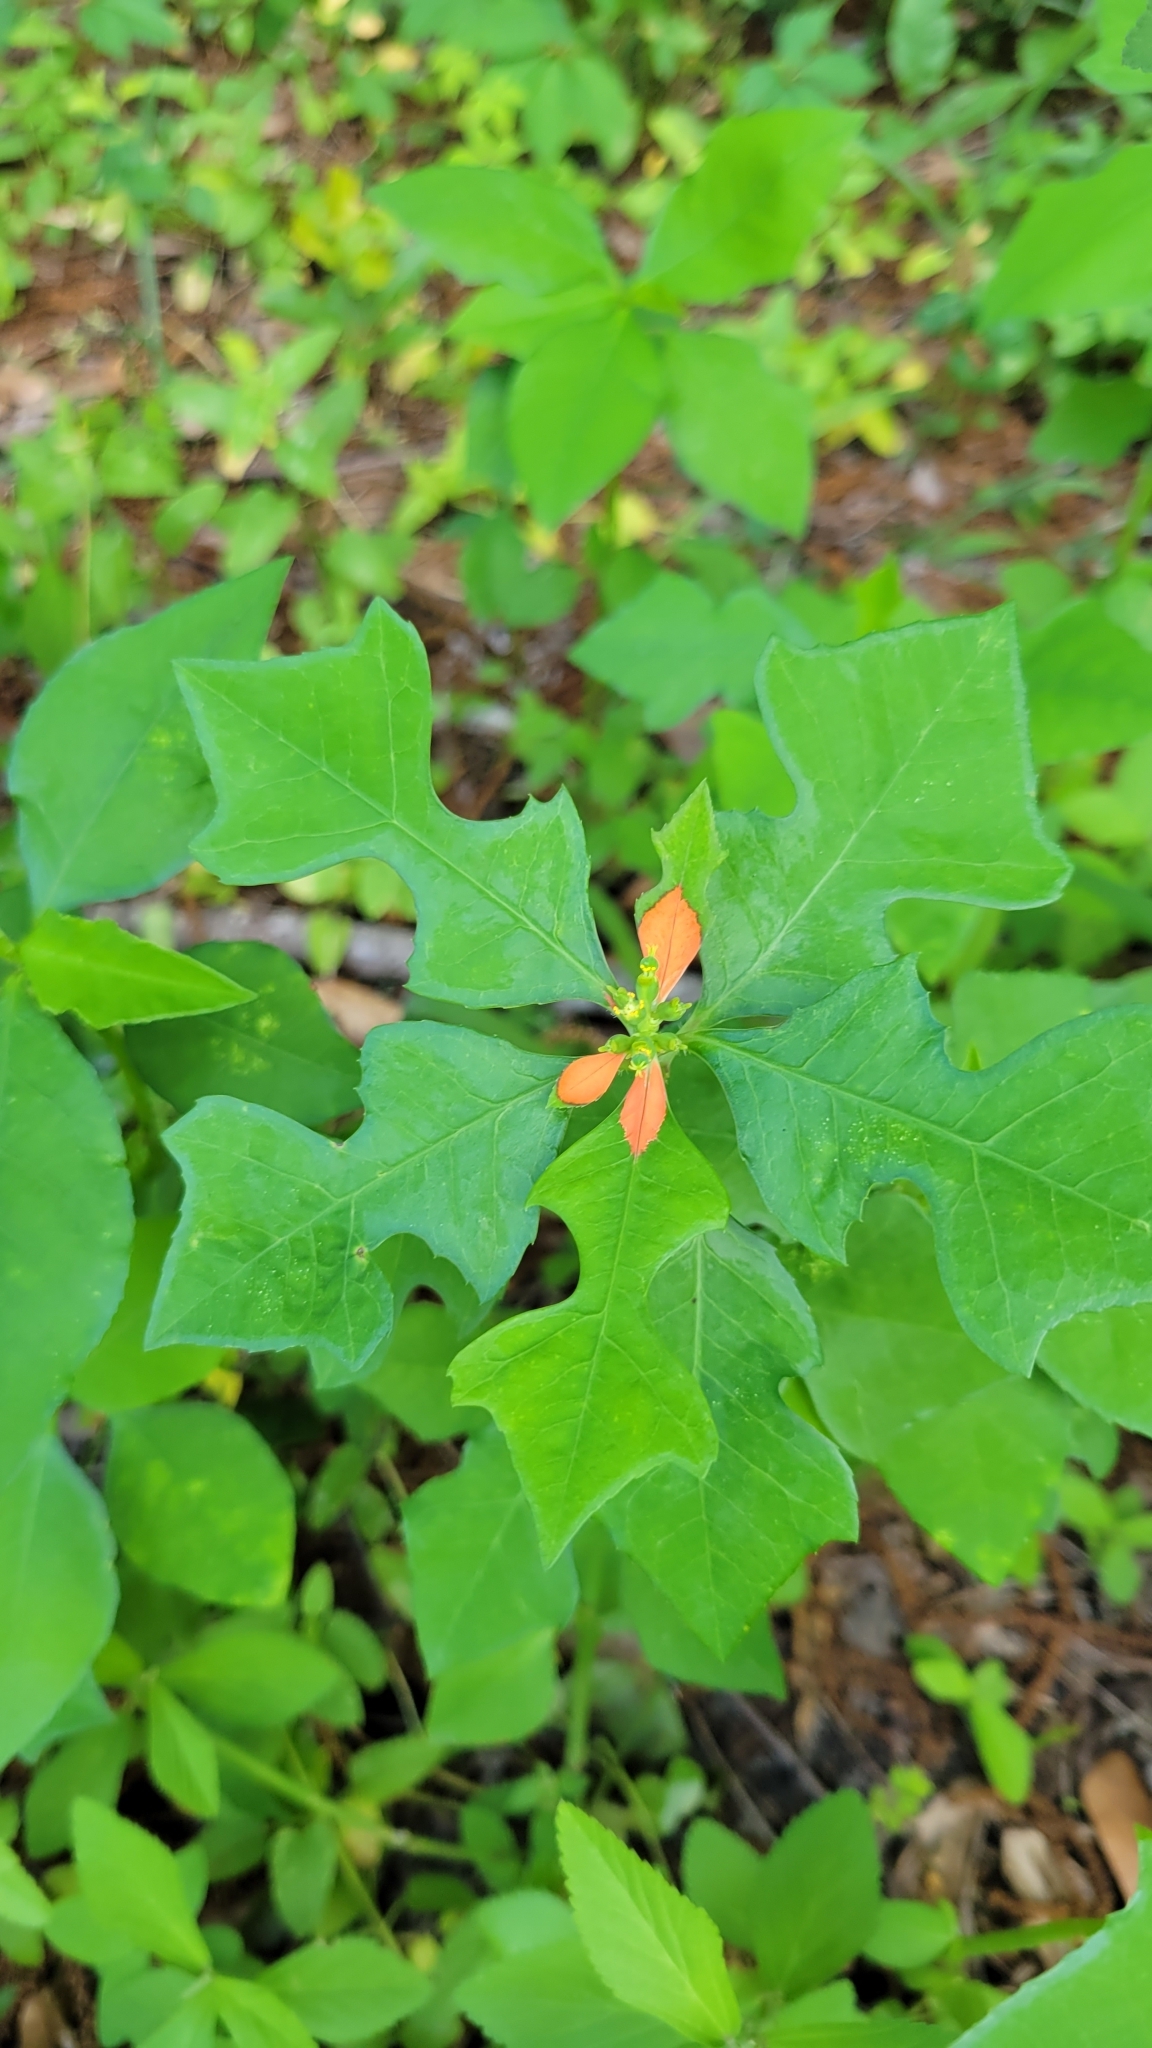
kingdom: Plantae
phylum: Tracheophyta
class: Magnoliopsida
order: Malpighiales
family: Euphorbiaceae
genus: Euphorbia
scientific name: Euphorbia heterophylla
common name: Mexican fireplant
